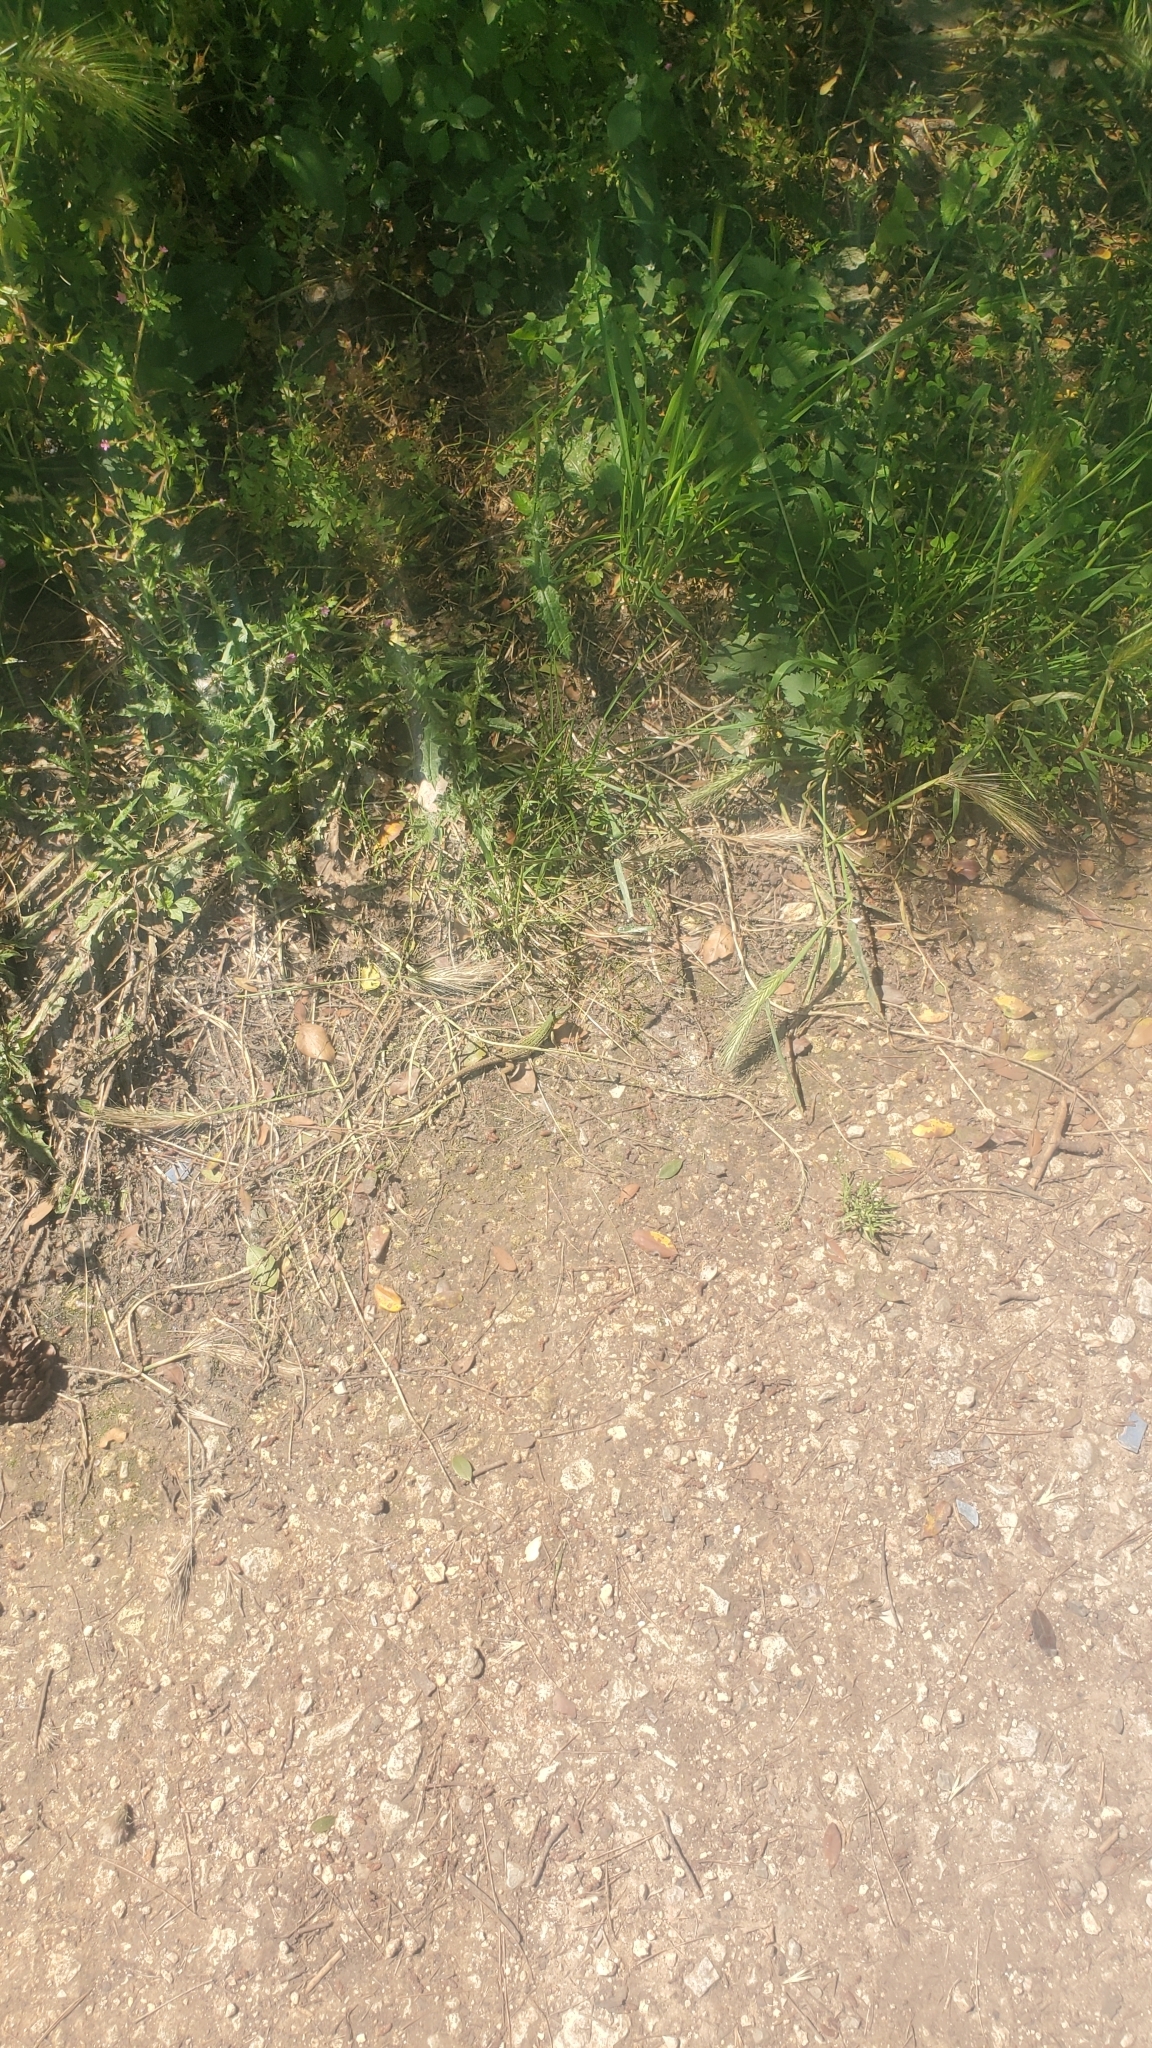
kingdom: Animalia
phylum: Chordata
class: Squamata
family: Lacertidae
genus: Podarcis
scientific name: Podarcis siculus
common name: Italian wall lizard
